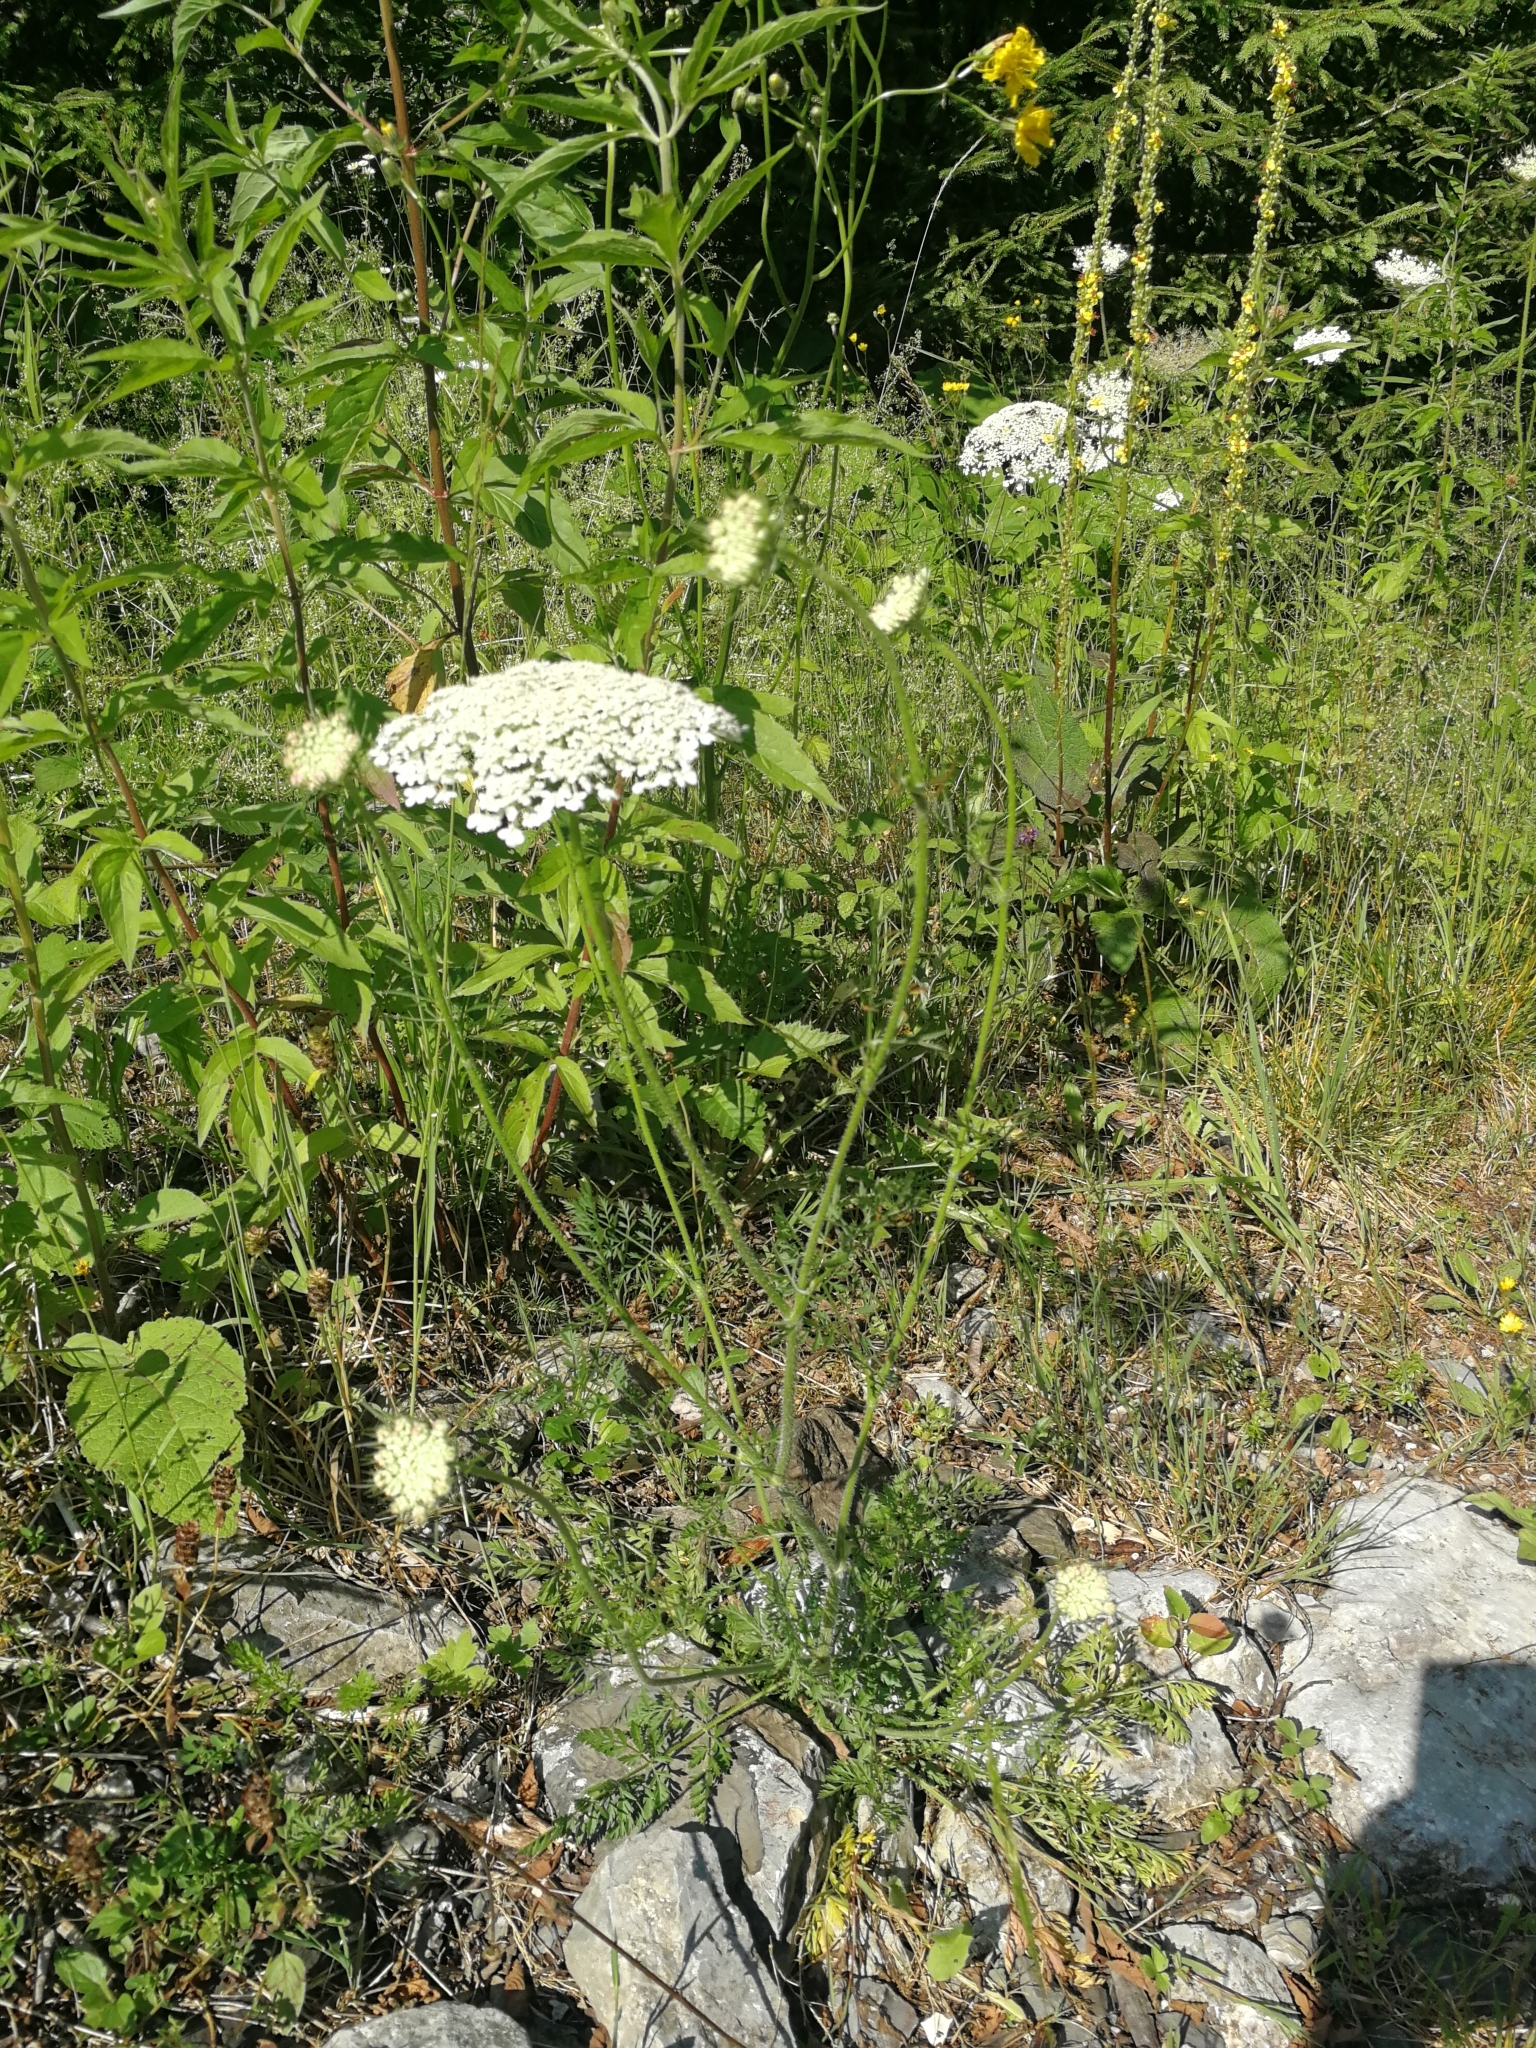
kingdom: Plantae
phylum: Tracheophyta
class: Magnoliopsida
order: Apiales
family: Apiaceae
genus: Daucus
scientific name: Daucus carota
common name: Wild carrot
